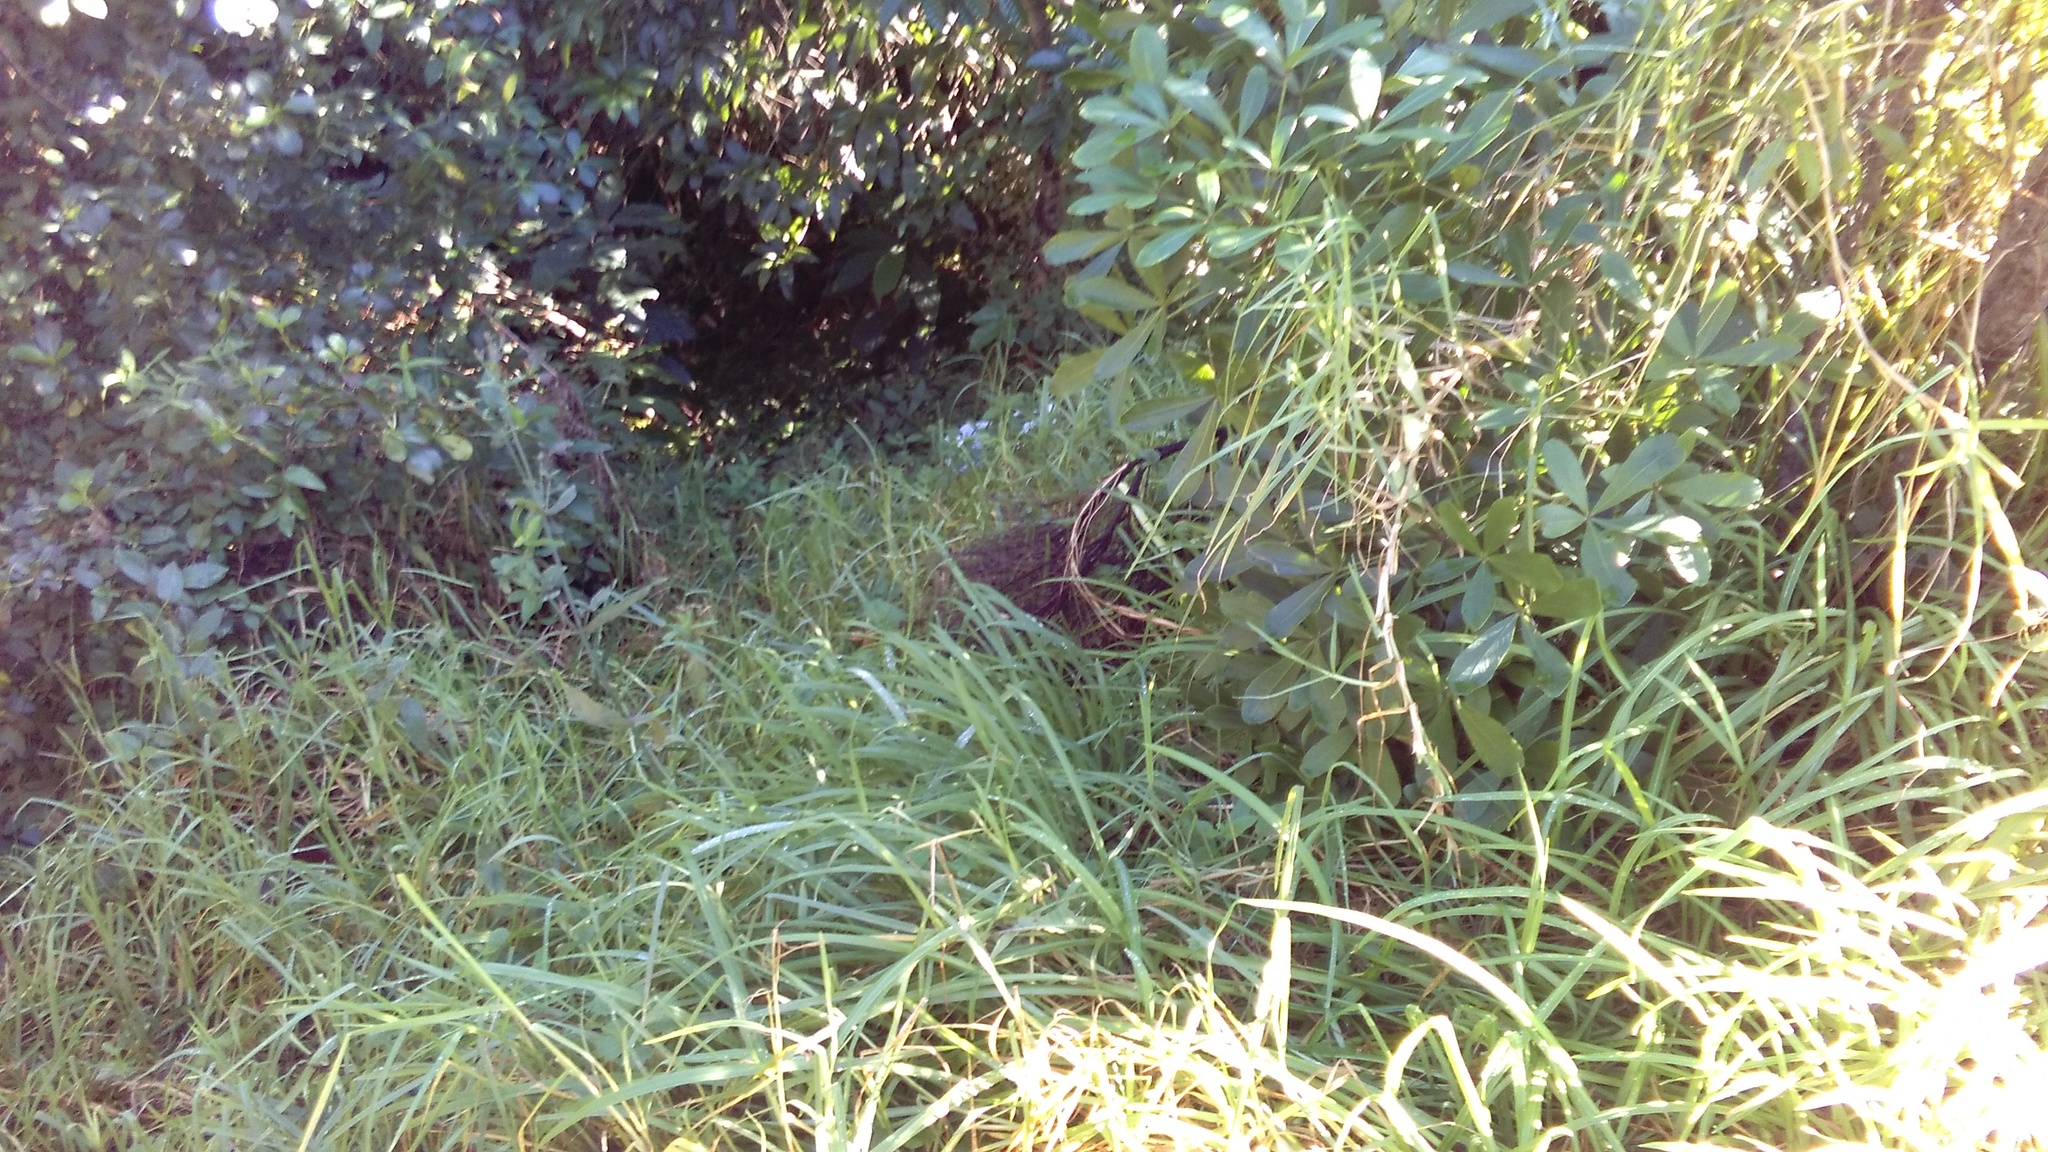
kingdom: Plantae
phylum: Tracheophyta
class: Liliopsida
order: Poales
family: Poaceae
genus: Cenchrus
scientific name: Cenchrus clandestinus
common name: Kikuyugrass
